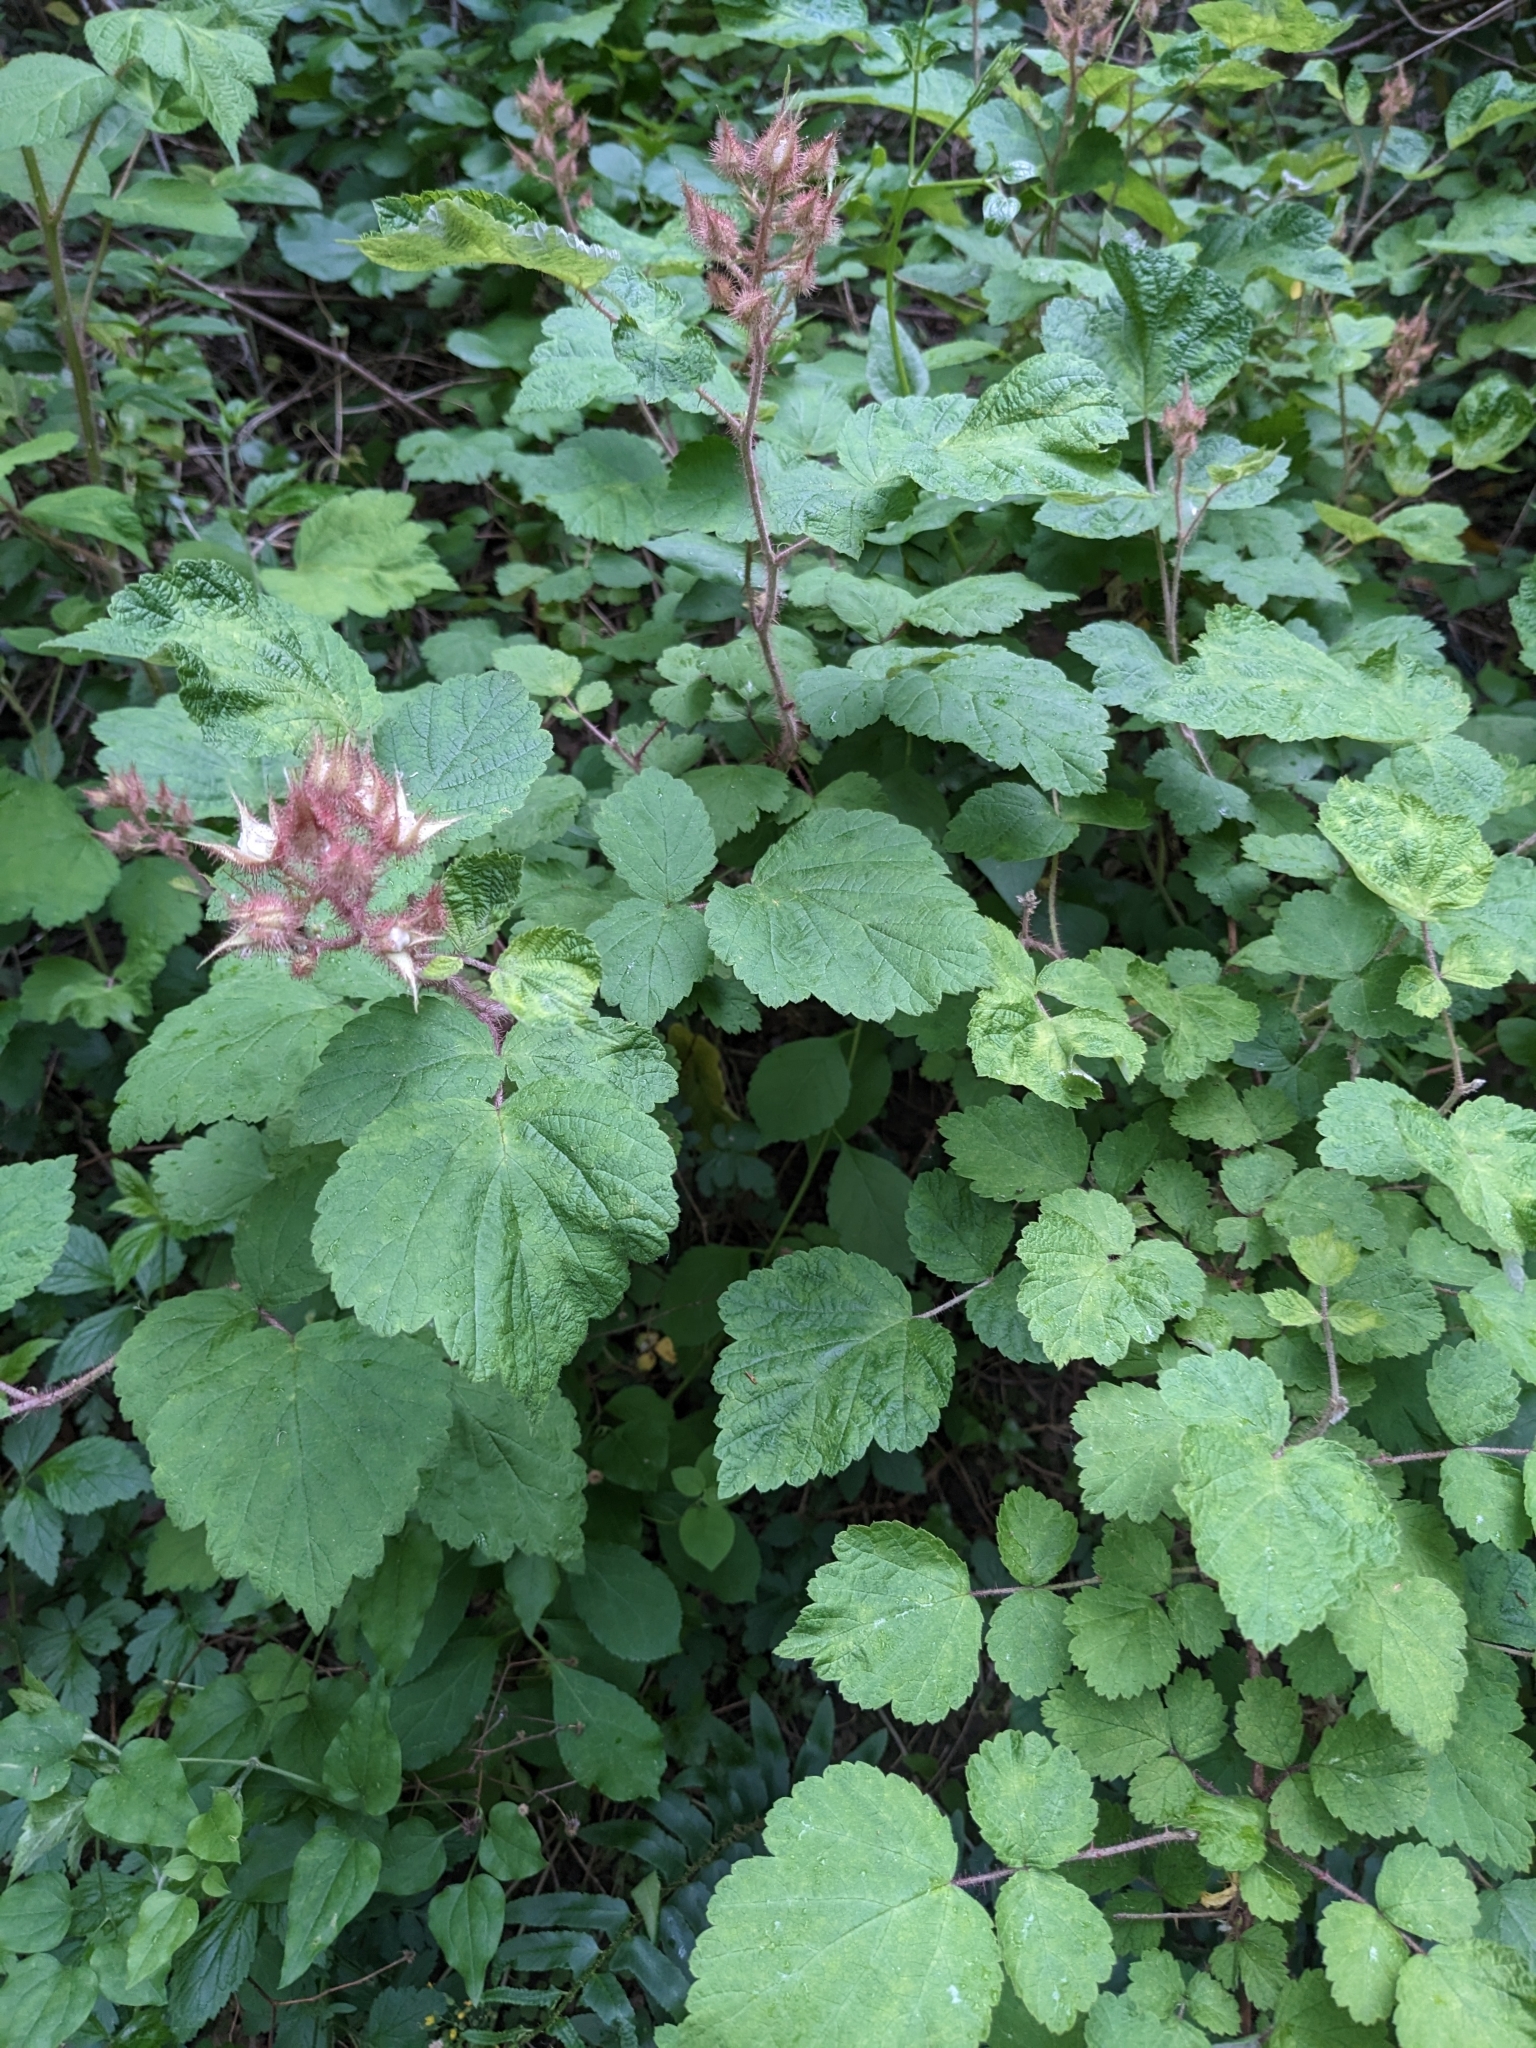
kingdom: Plantae
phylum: Tracheophyta
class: Magnoliopsida
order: Rosales
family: Rosaceae
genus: Rubus
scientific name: Rubus phoenicolasius
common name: Japanese wineberry
